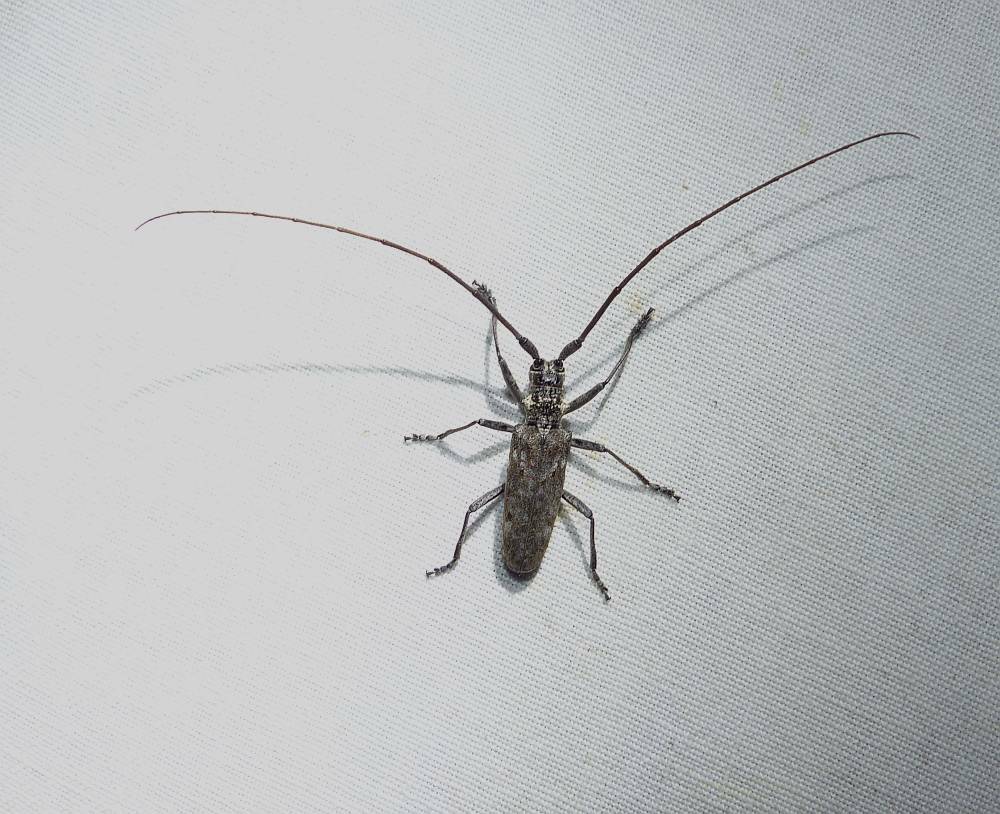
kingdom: Animalia
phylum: Arthropoda
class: Insecta
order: Coleoptera
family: Cerambycidae
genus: Monochamus
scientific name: Monochamus notatus
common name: Northeastern pine sawyer beetle
